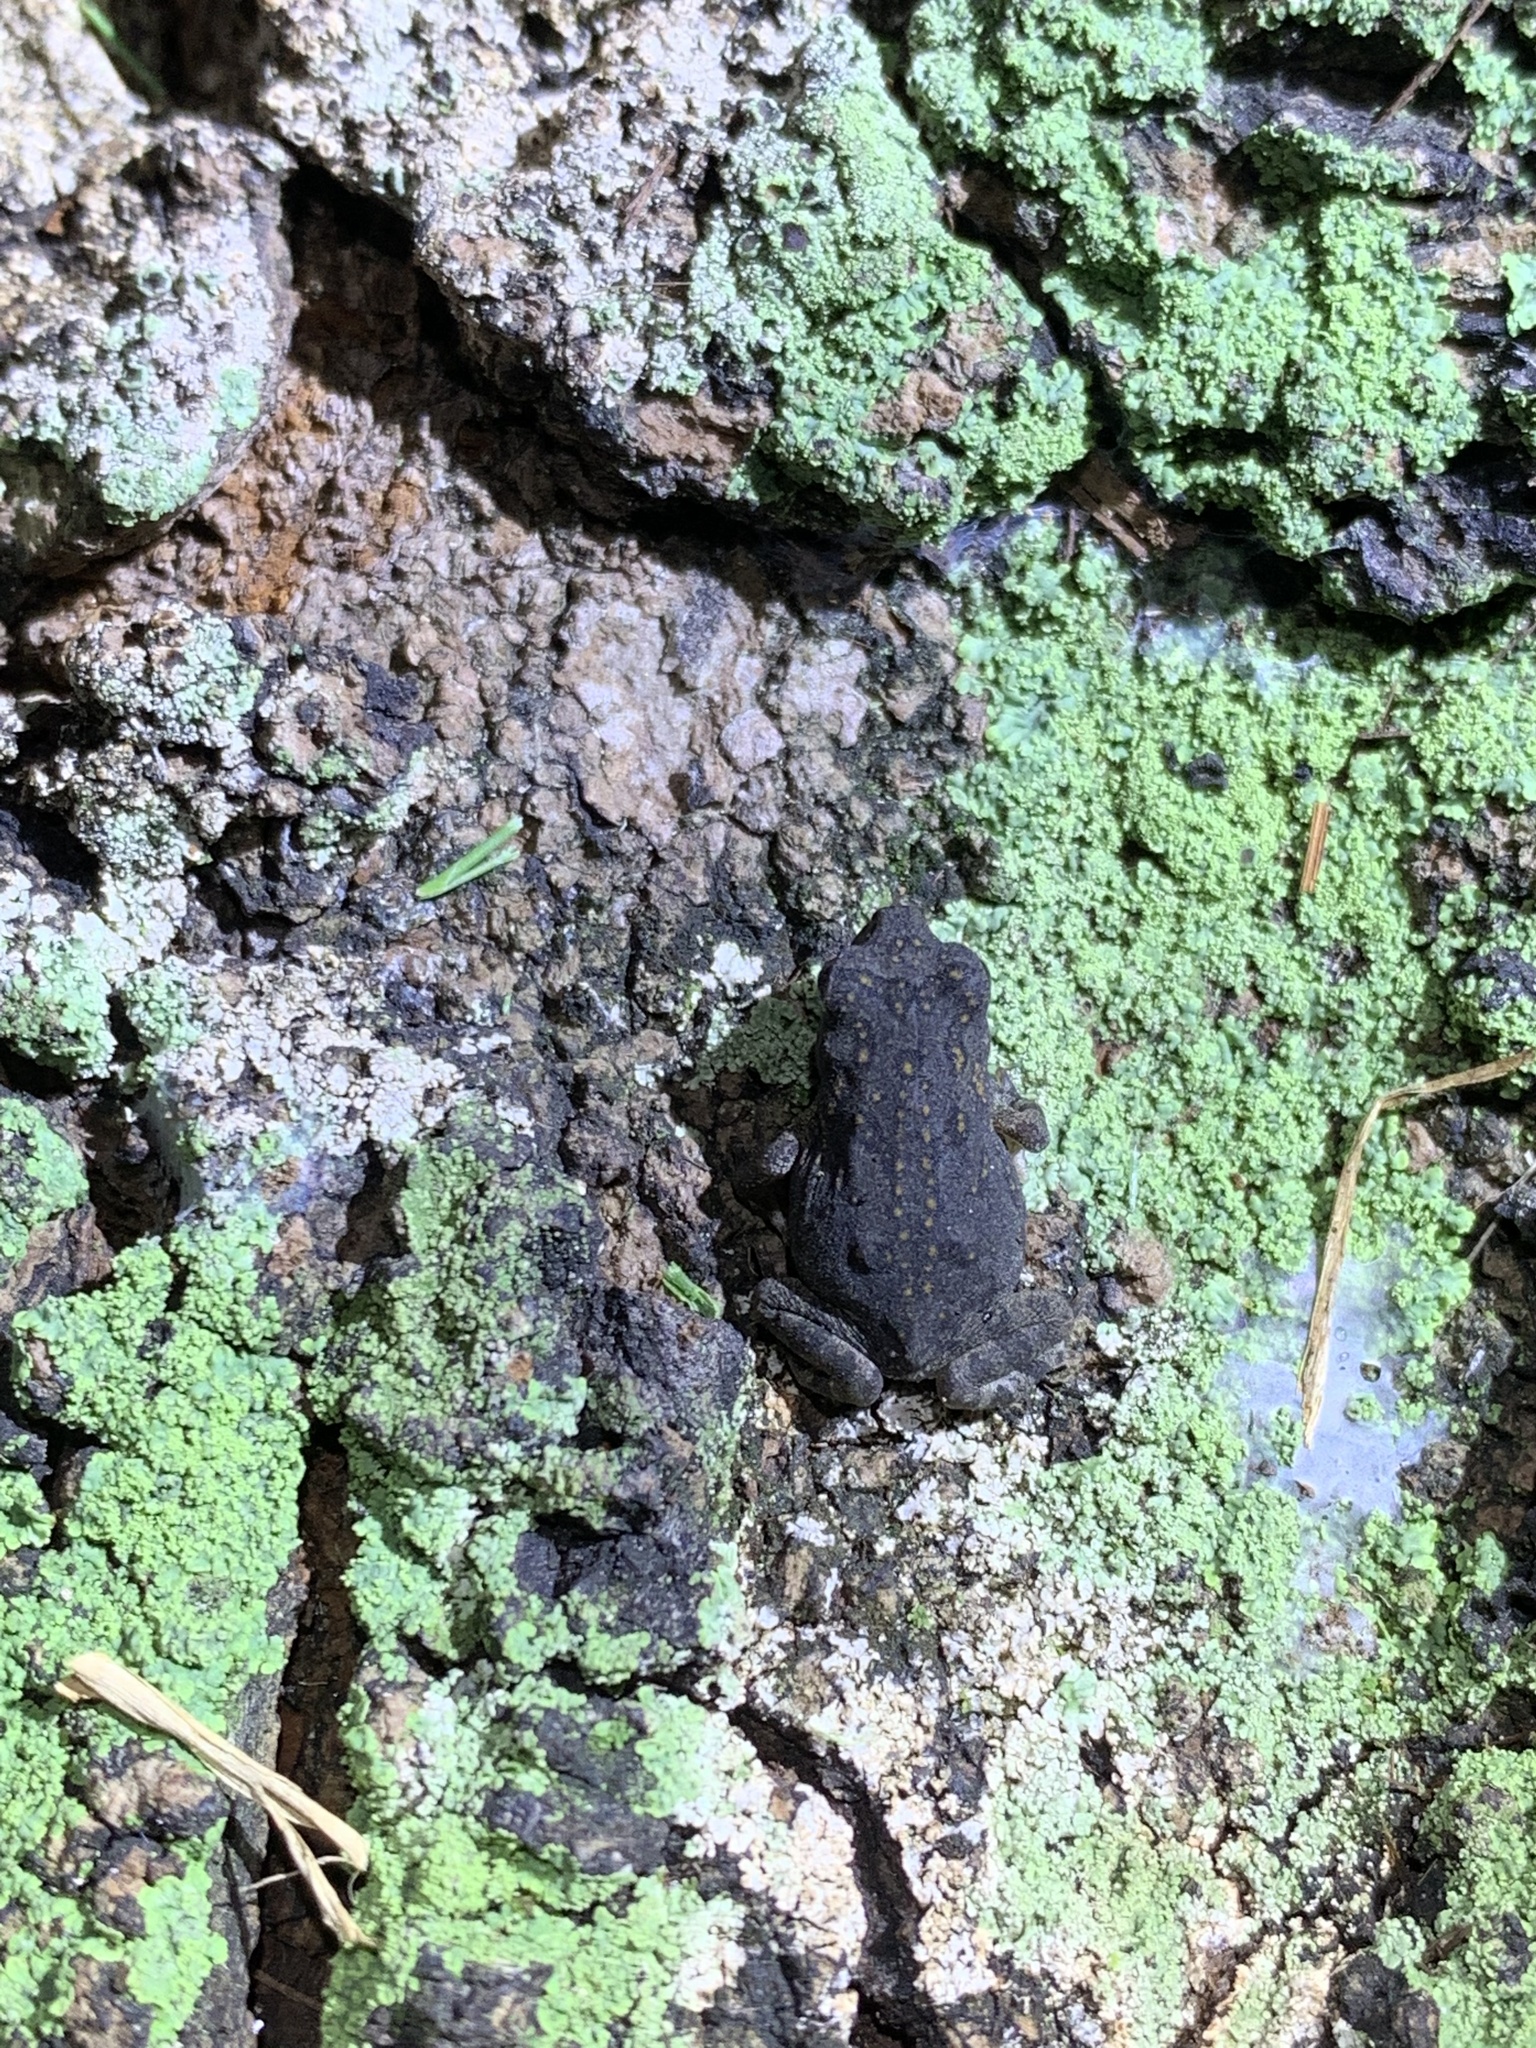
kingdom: Animalia
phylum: Chordata
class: Amphibia
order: Anura
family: Bufonidae
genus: Rhinella
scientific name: Rhinella marina
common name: Cane toad
